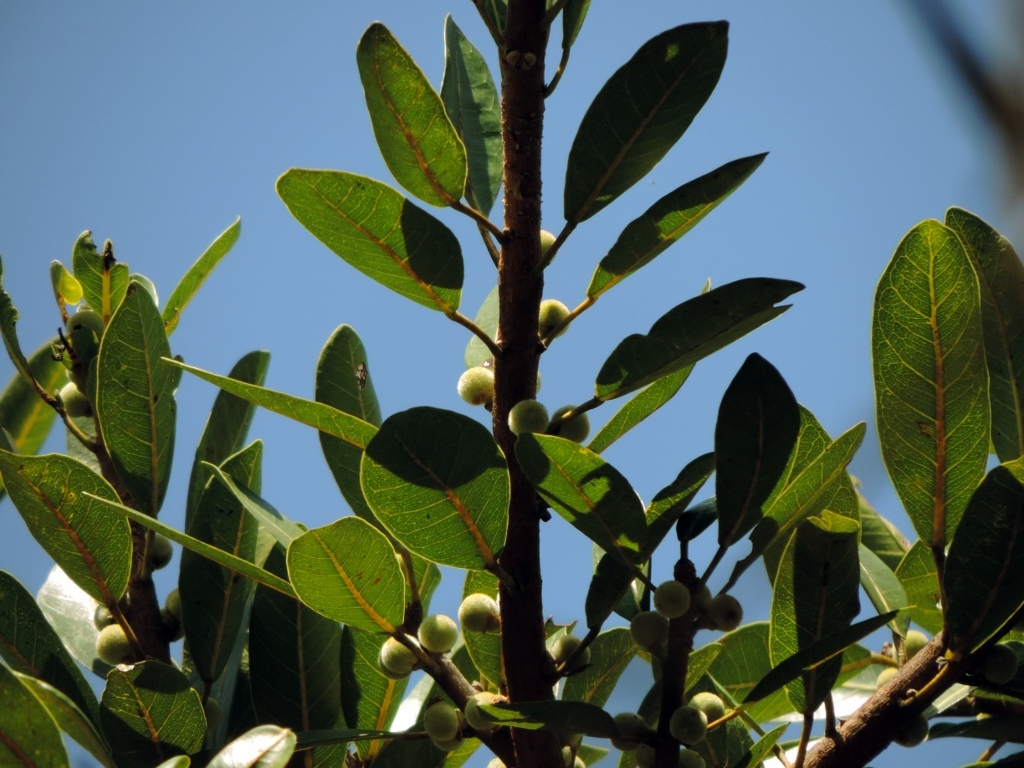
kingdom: Plantae
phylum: Tracheophyta
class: Magnoliopsida
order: Rosales
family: Moraceae
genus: Ficus
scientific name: Ficus thonningii
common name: Fig
